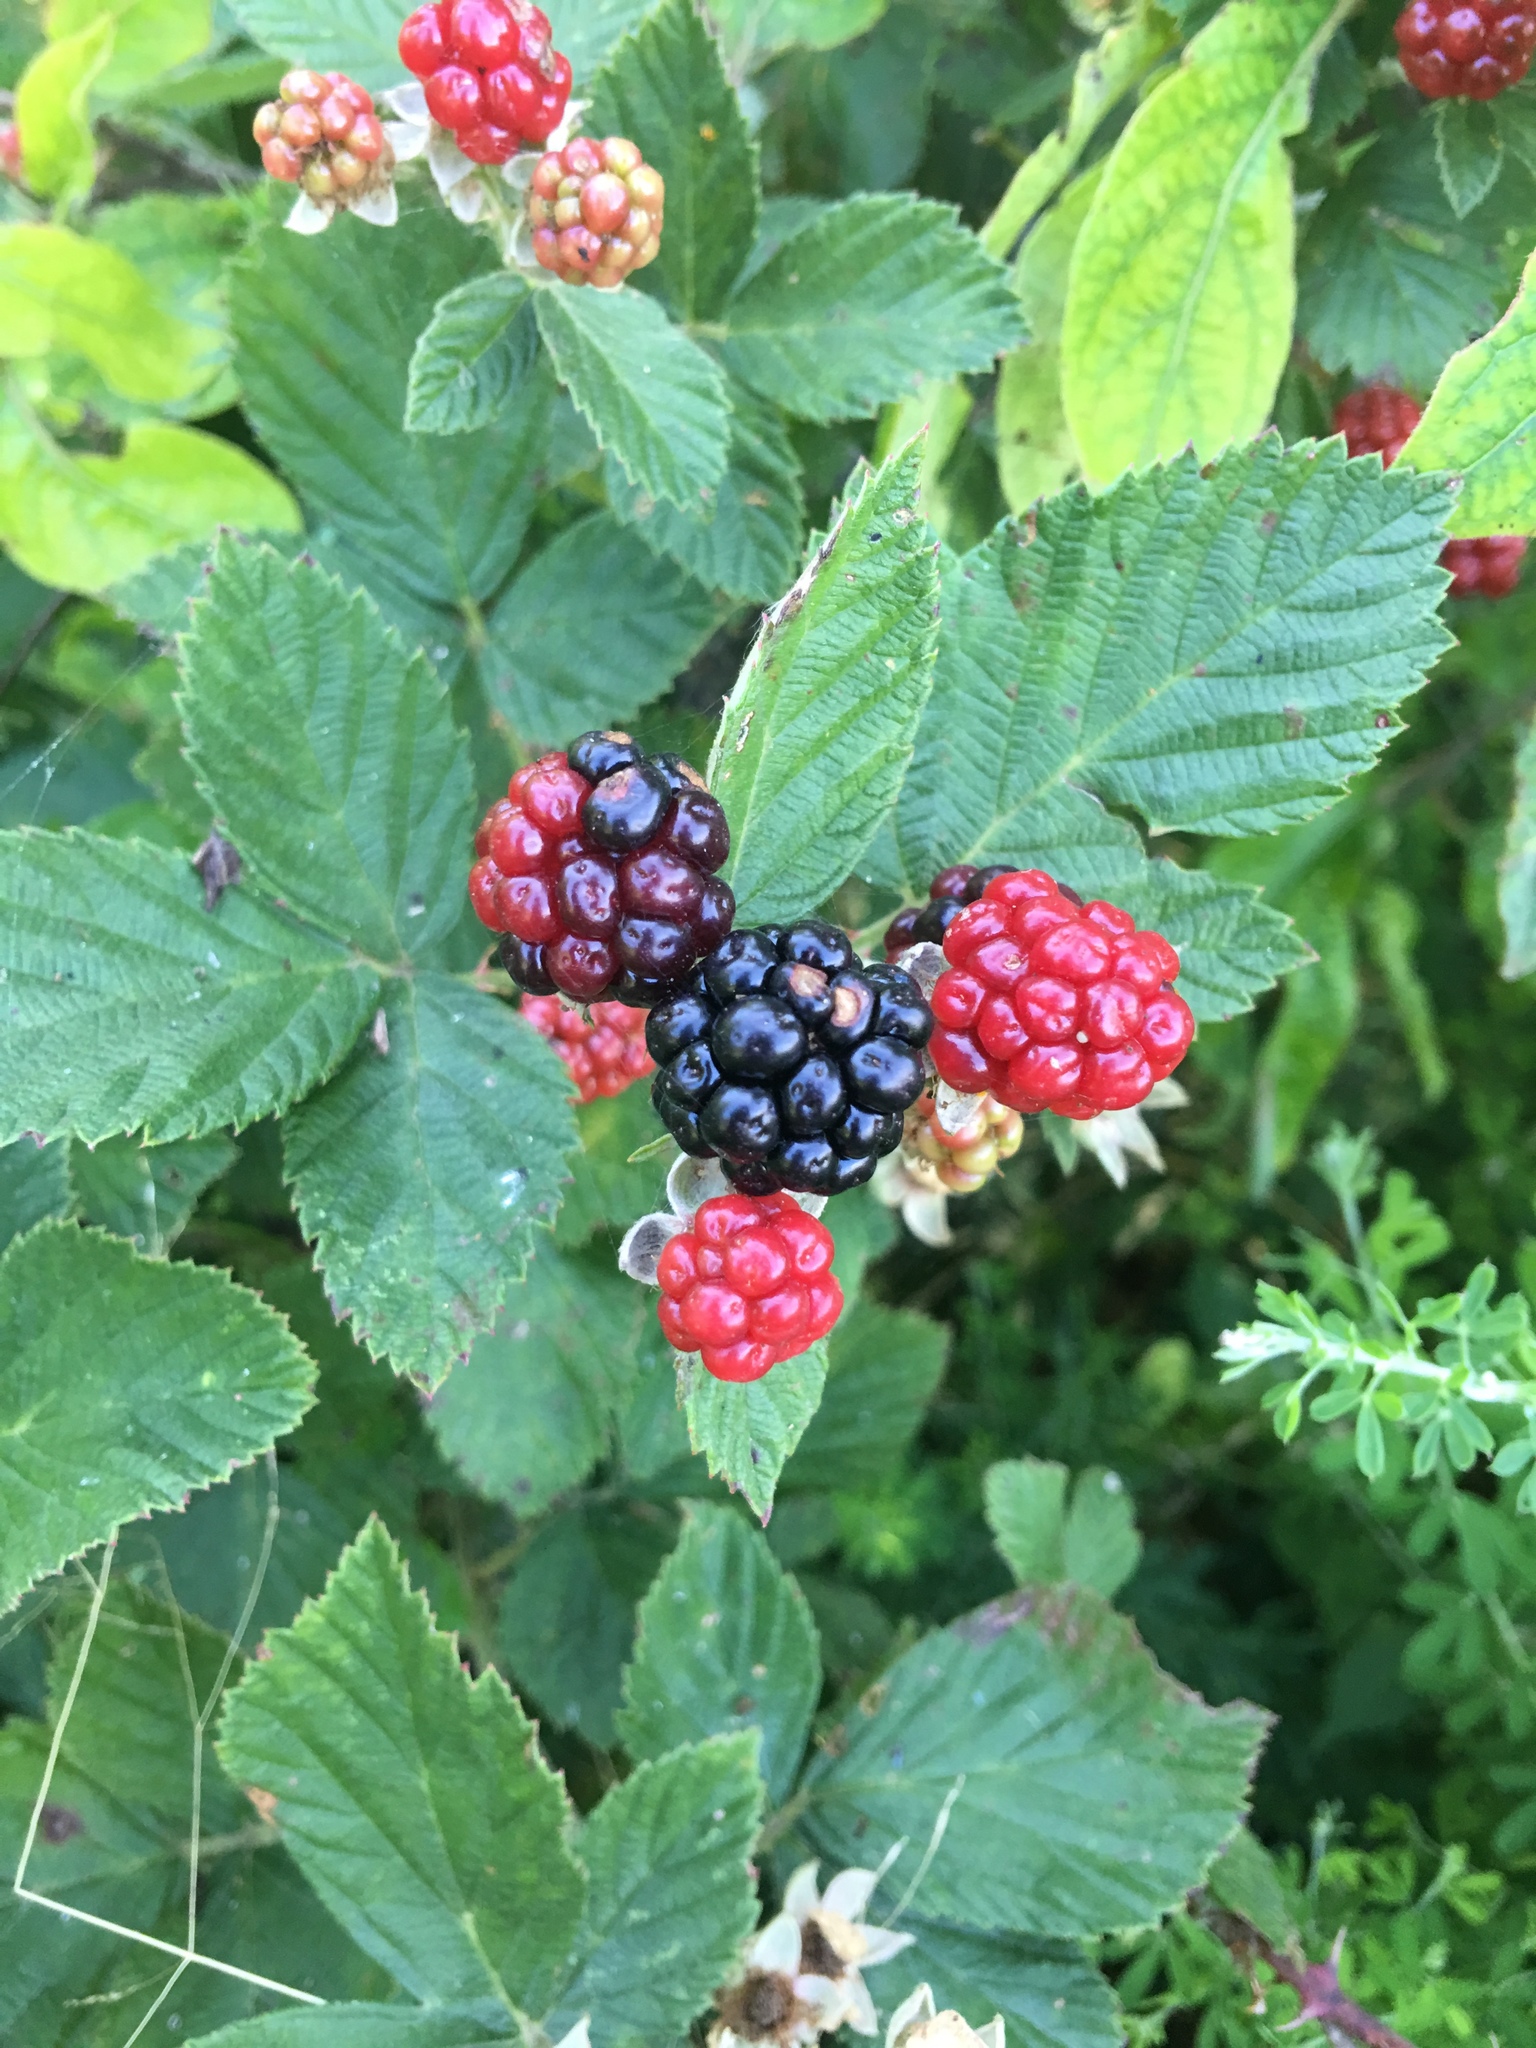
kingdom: Plantae
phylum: Tracheophyta
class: Magnoliopsida
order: Rosales
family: Rosaceae
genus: Rubus
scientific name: Rubus allegheniensis
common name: Allegheny blackberry
